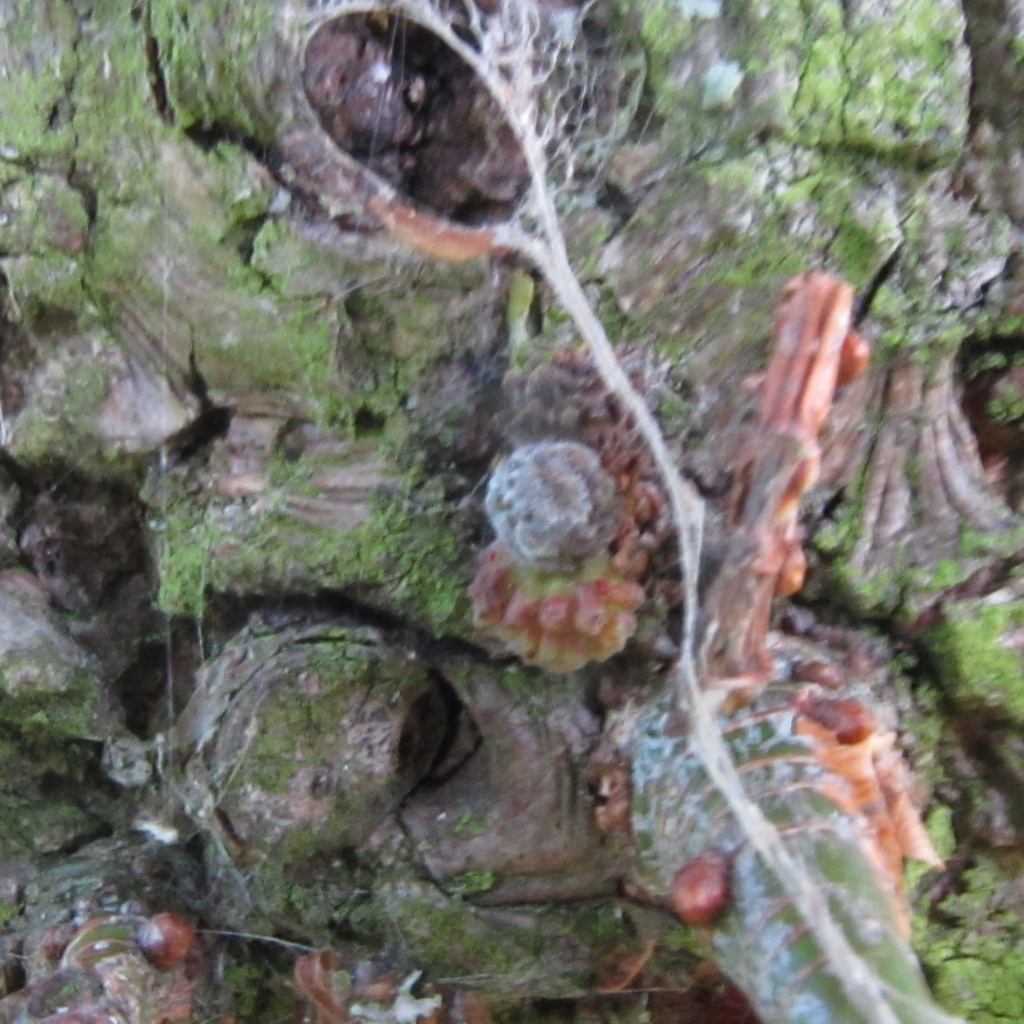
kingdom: Animalia
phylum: Arthropoda
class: Insecta
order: Hymenoptera
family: Cynipidae
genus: Andricus
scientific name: Andricus gemmeus
